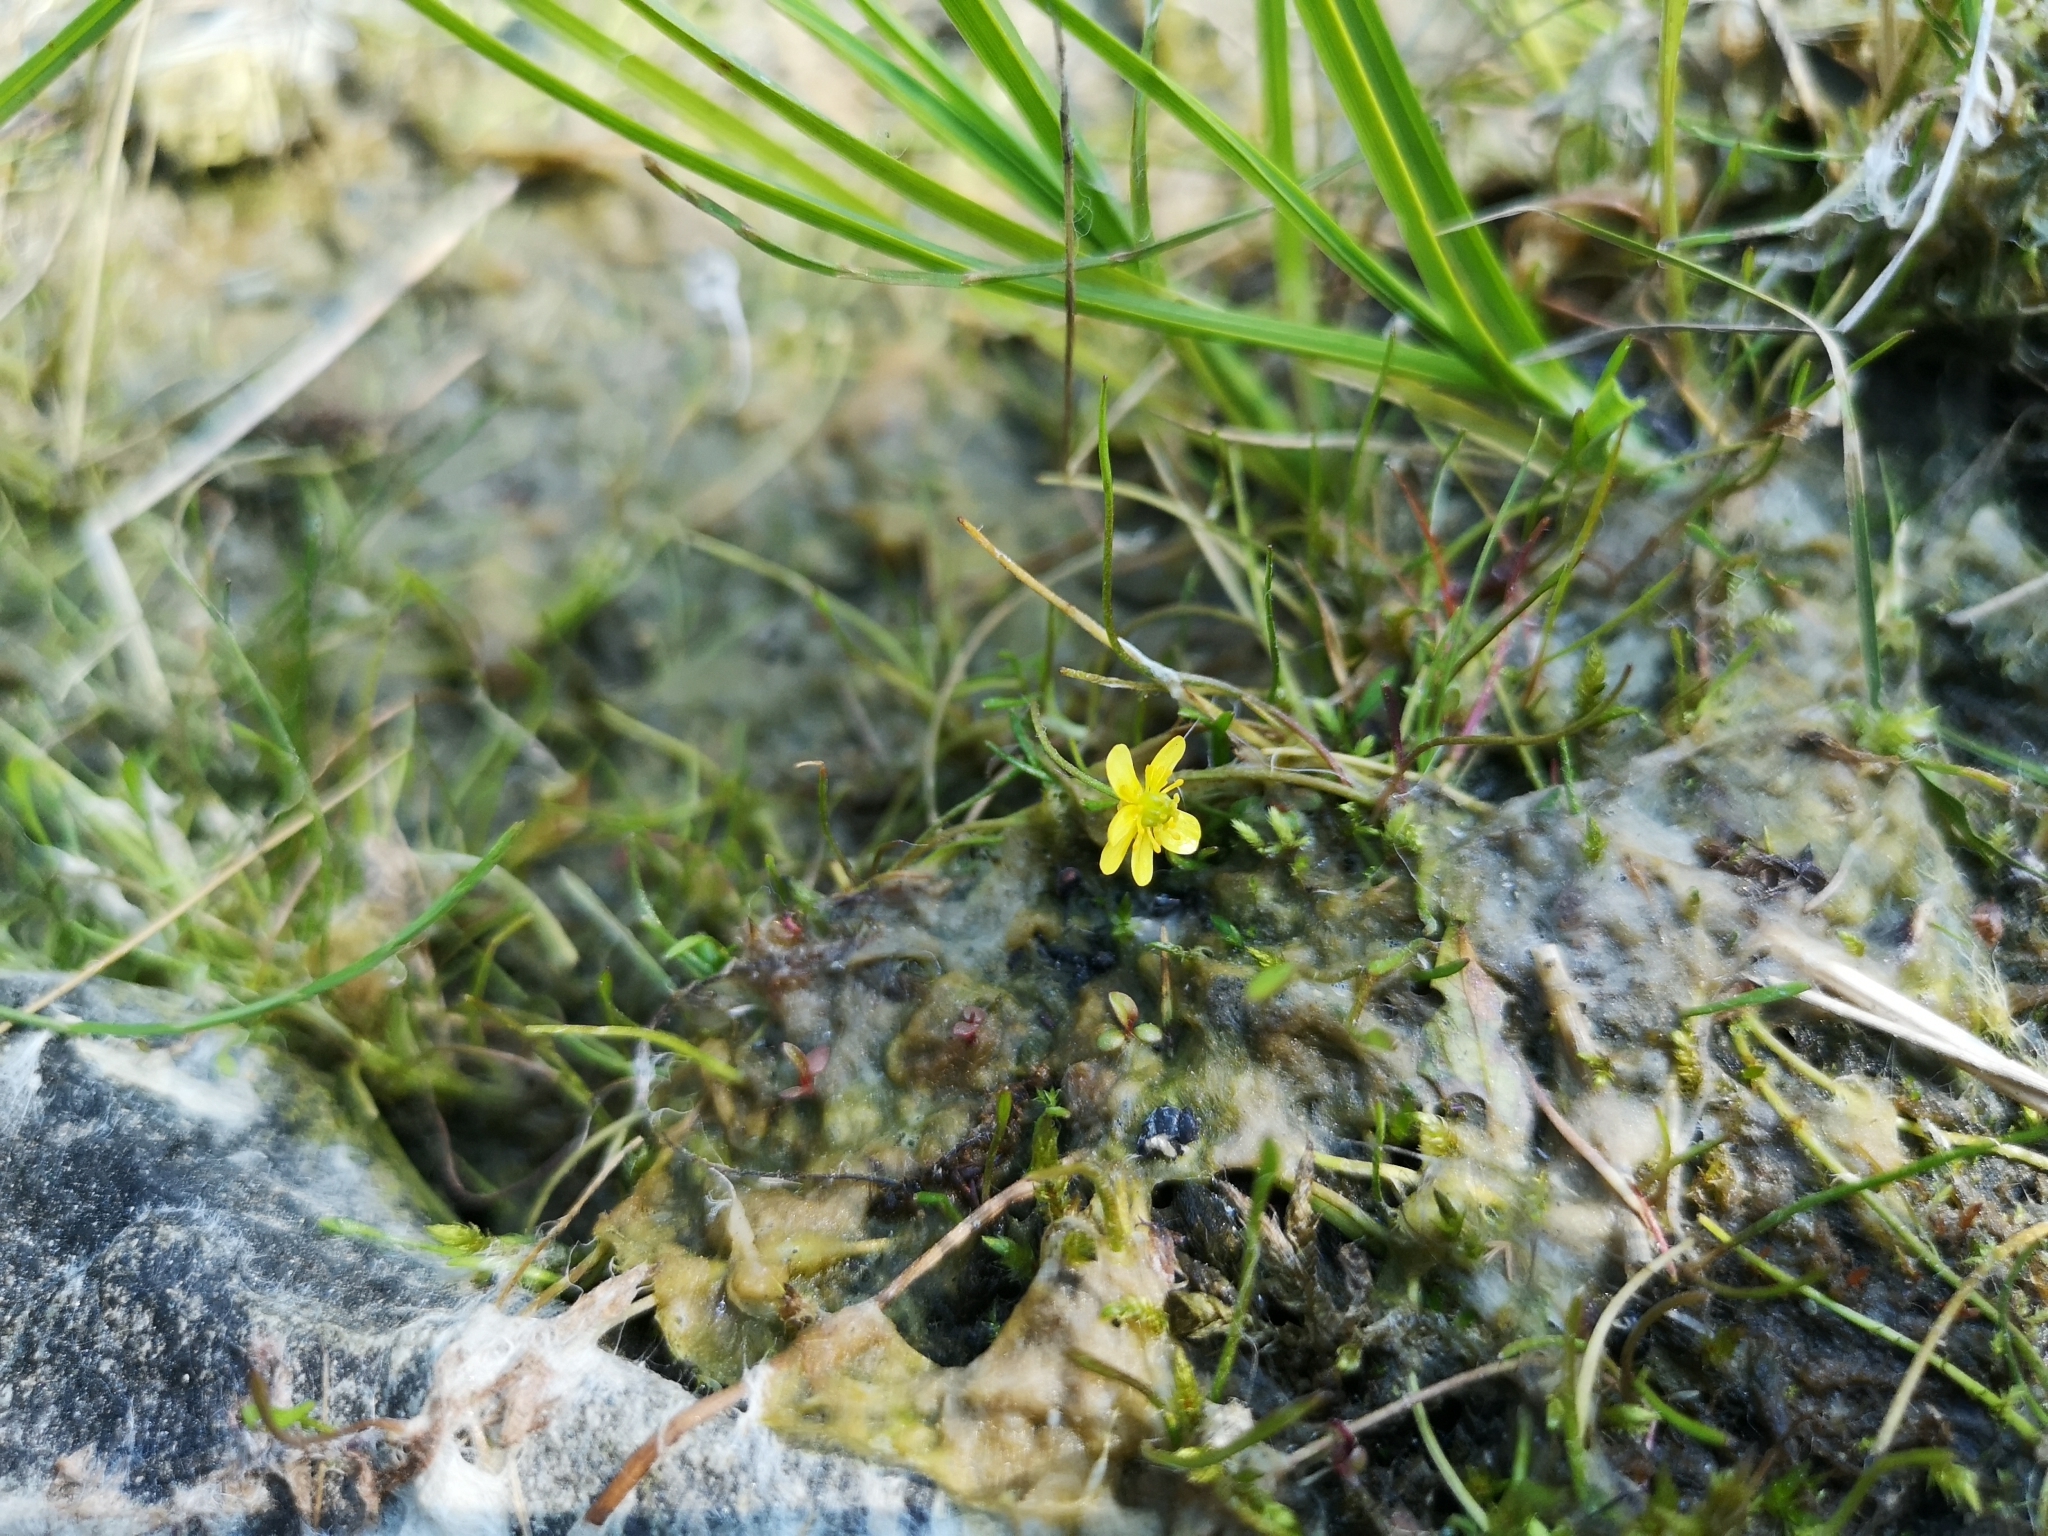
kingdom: Plantae
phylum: Tracheophyta
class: Magnoliopsida
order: Ranunculales
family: Ranunculaceae
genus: Ranunculus
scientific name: Ranunculus reptans
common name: Creeping spearwort
